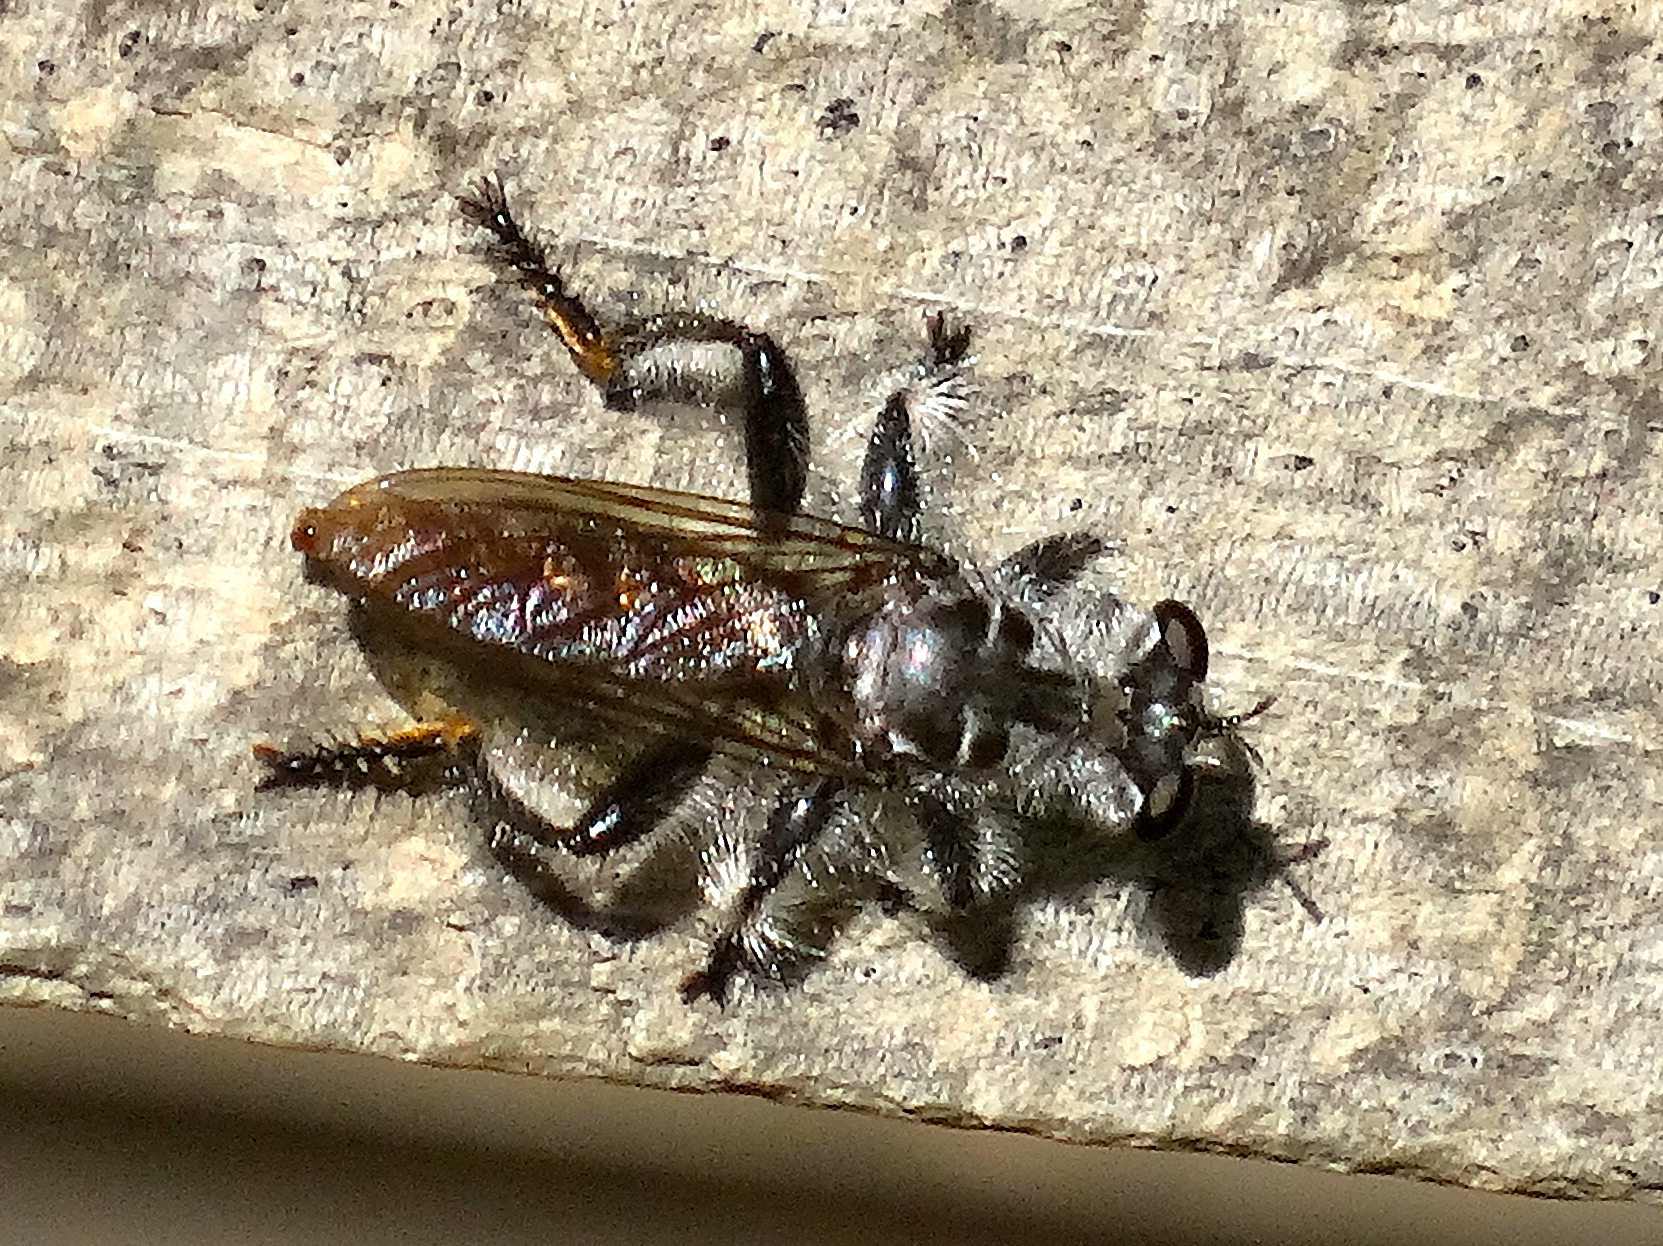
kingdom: Animalia
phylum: Arthropoda
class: Insecta
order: Diptera
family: Asilidae
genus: Andrenosoma
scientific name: Andrenosoma
